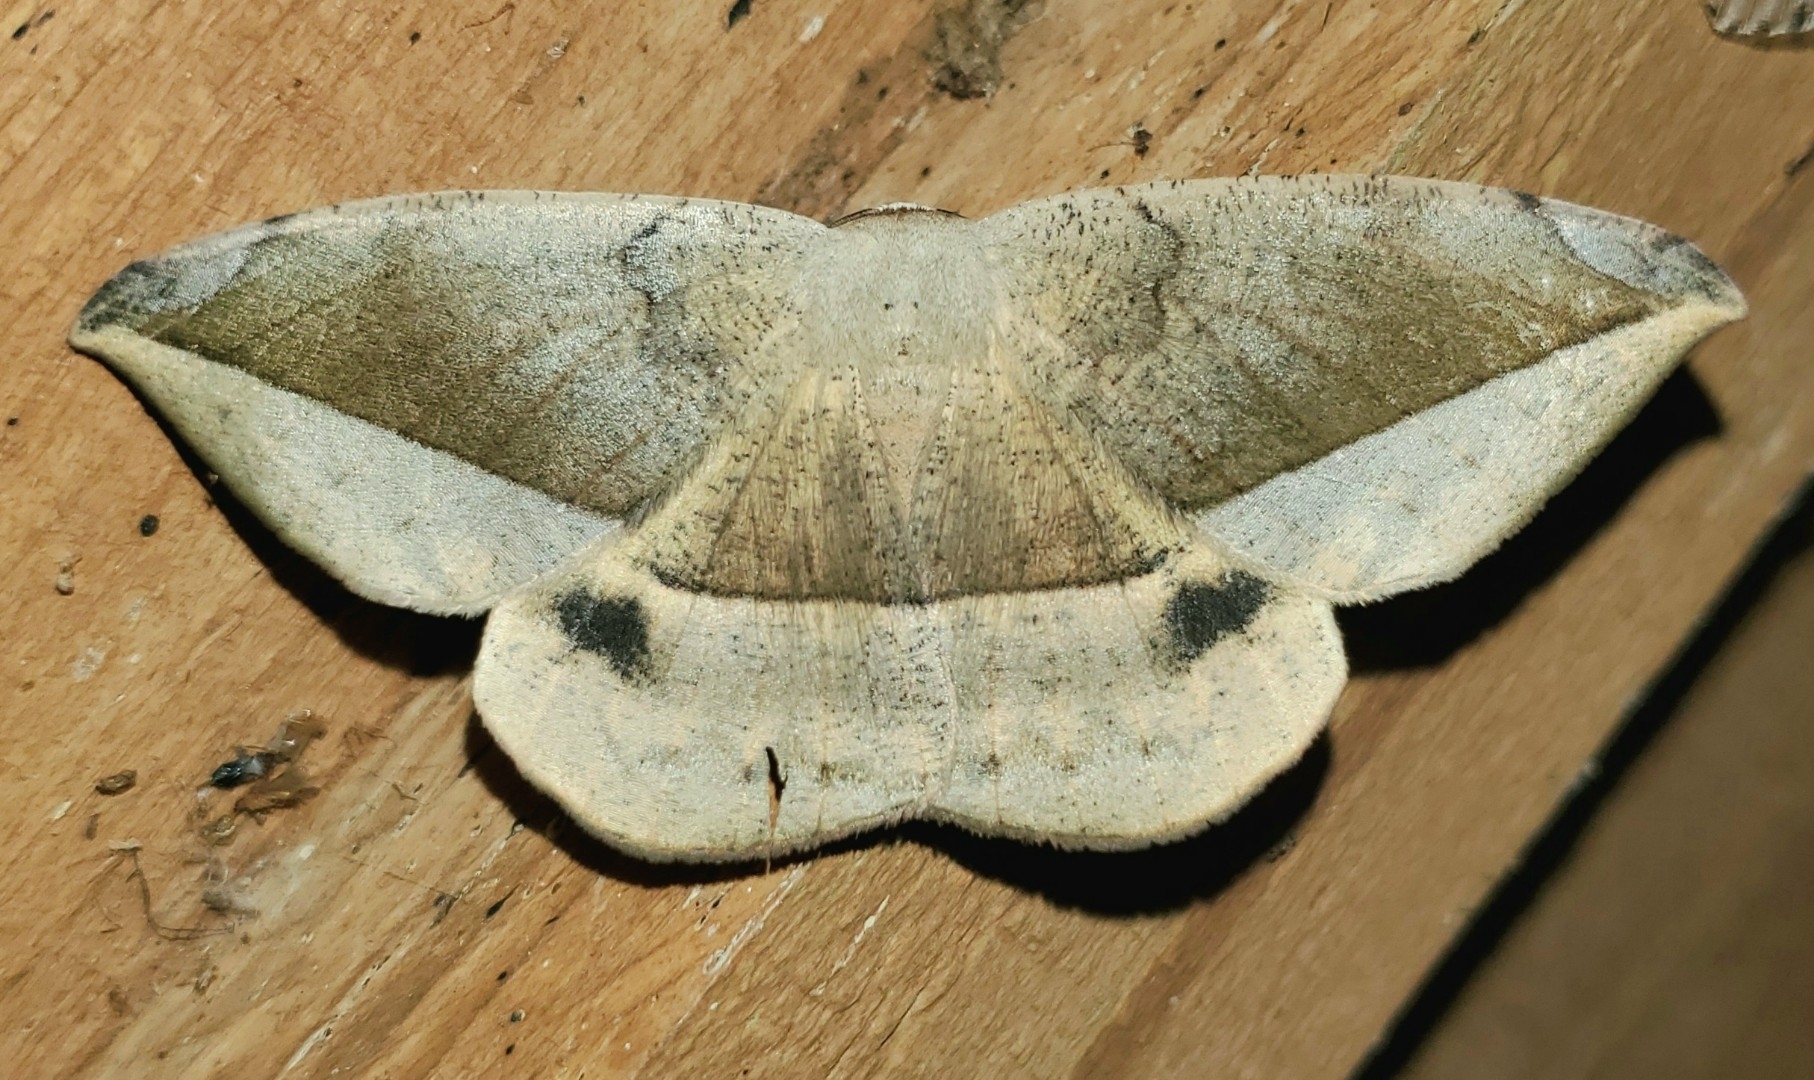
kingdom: Animalia
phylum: Arthropoda
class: Insecta
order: Lepidoptera
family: Geometridae
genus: Oxydia
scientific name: Oxydia vesulia
